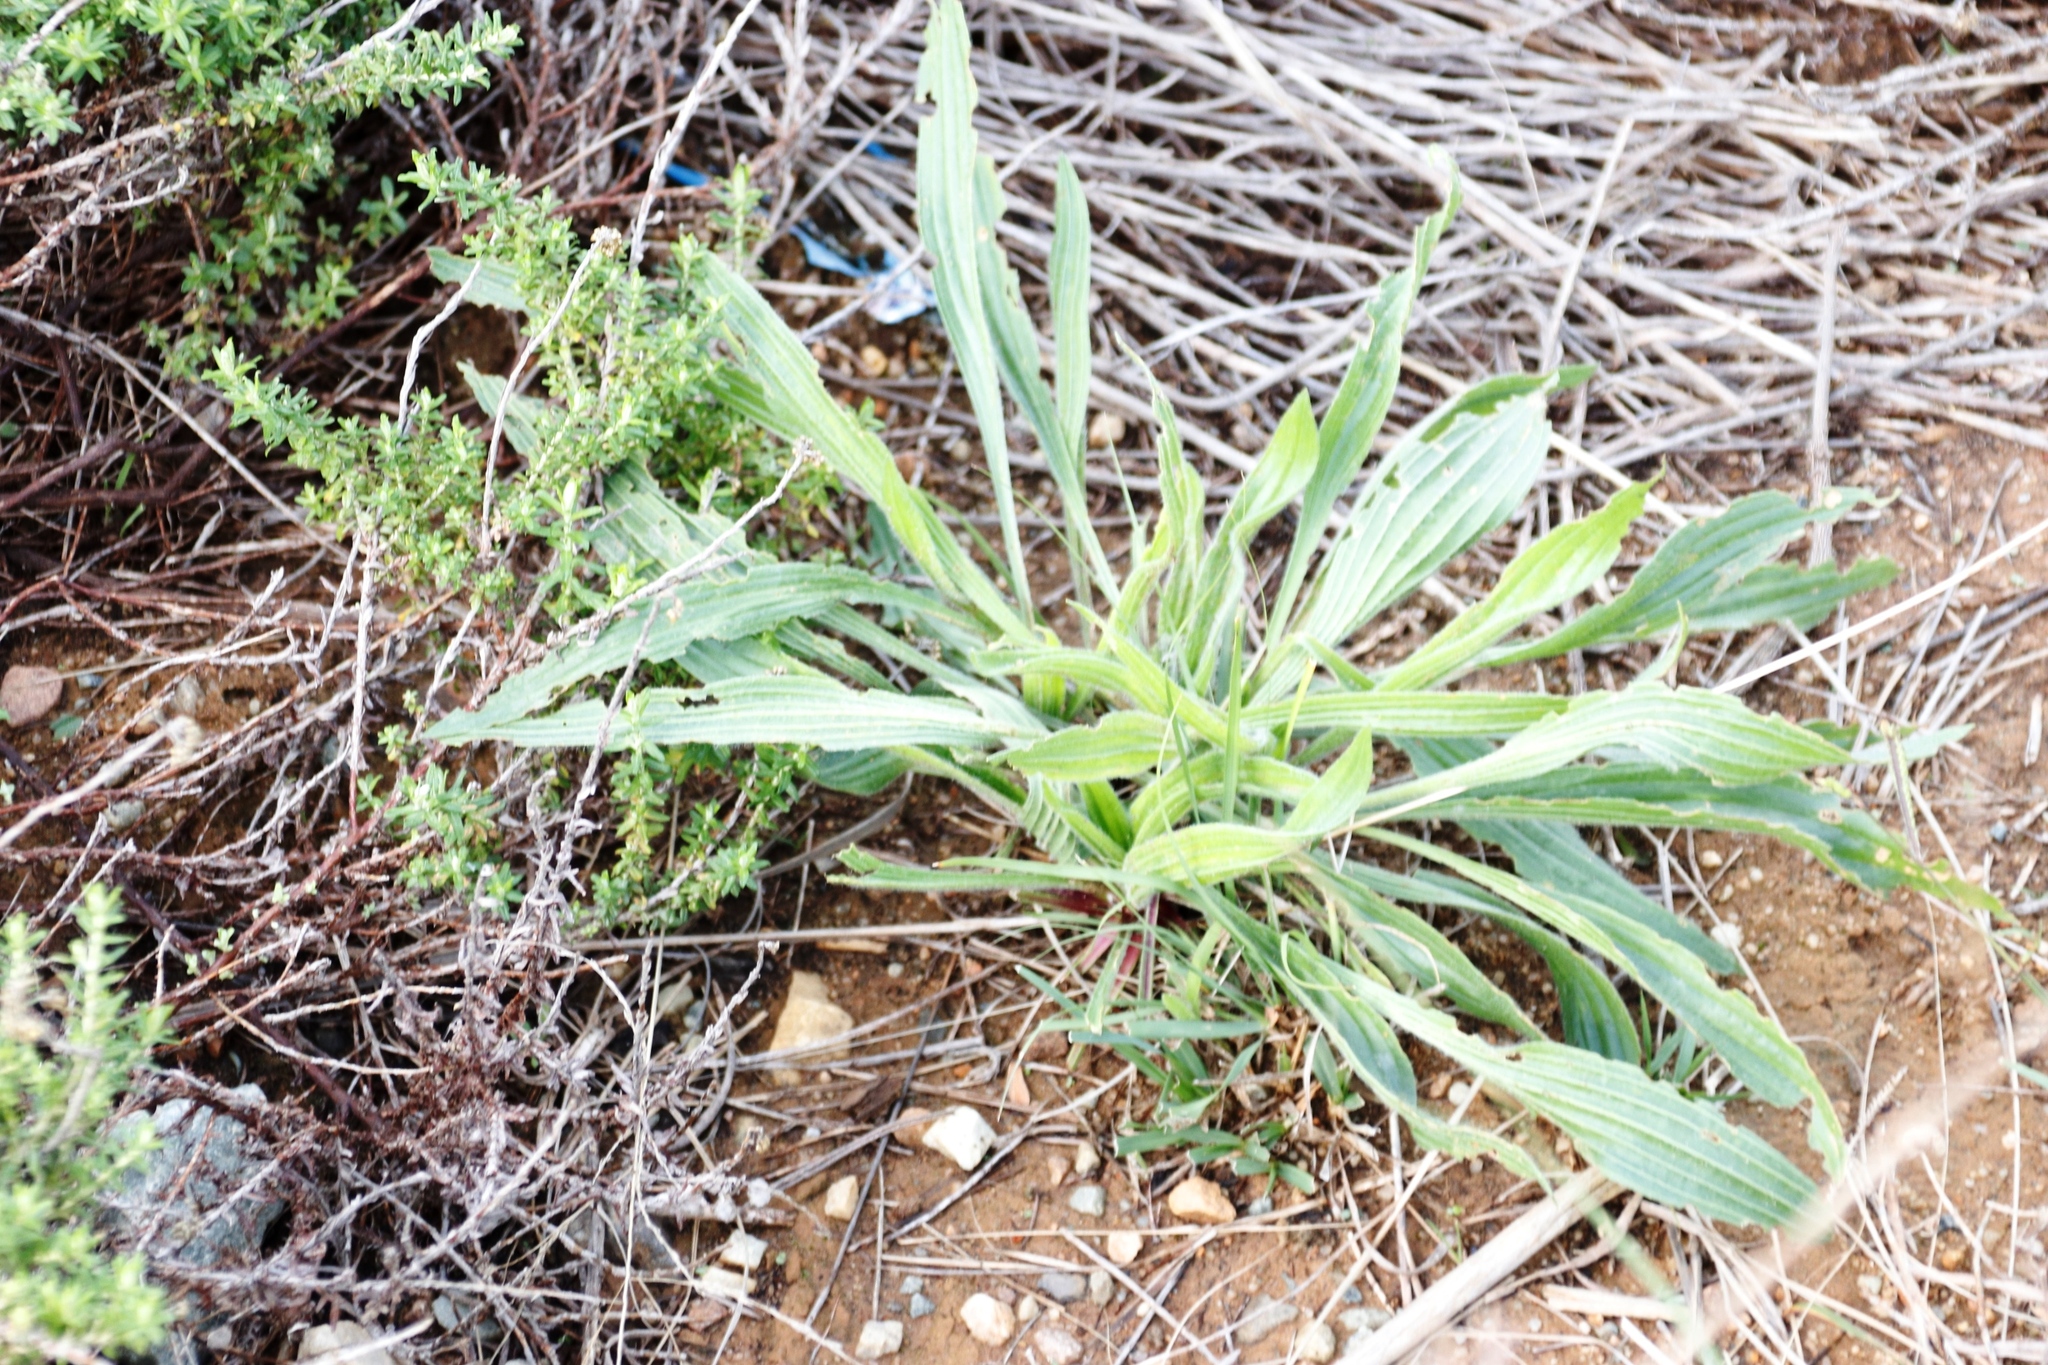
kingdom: Plantae
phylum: Tracheophyta
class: Magnoliopsida
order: Lamiales
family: Plantaginaceae
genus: Plantago
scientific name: Plantago lanceolata
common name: Ribwort plantain
